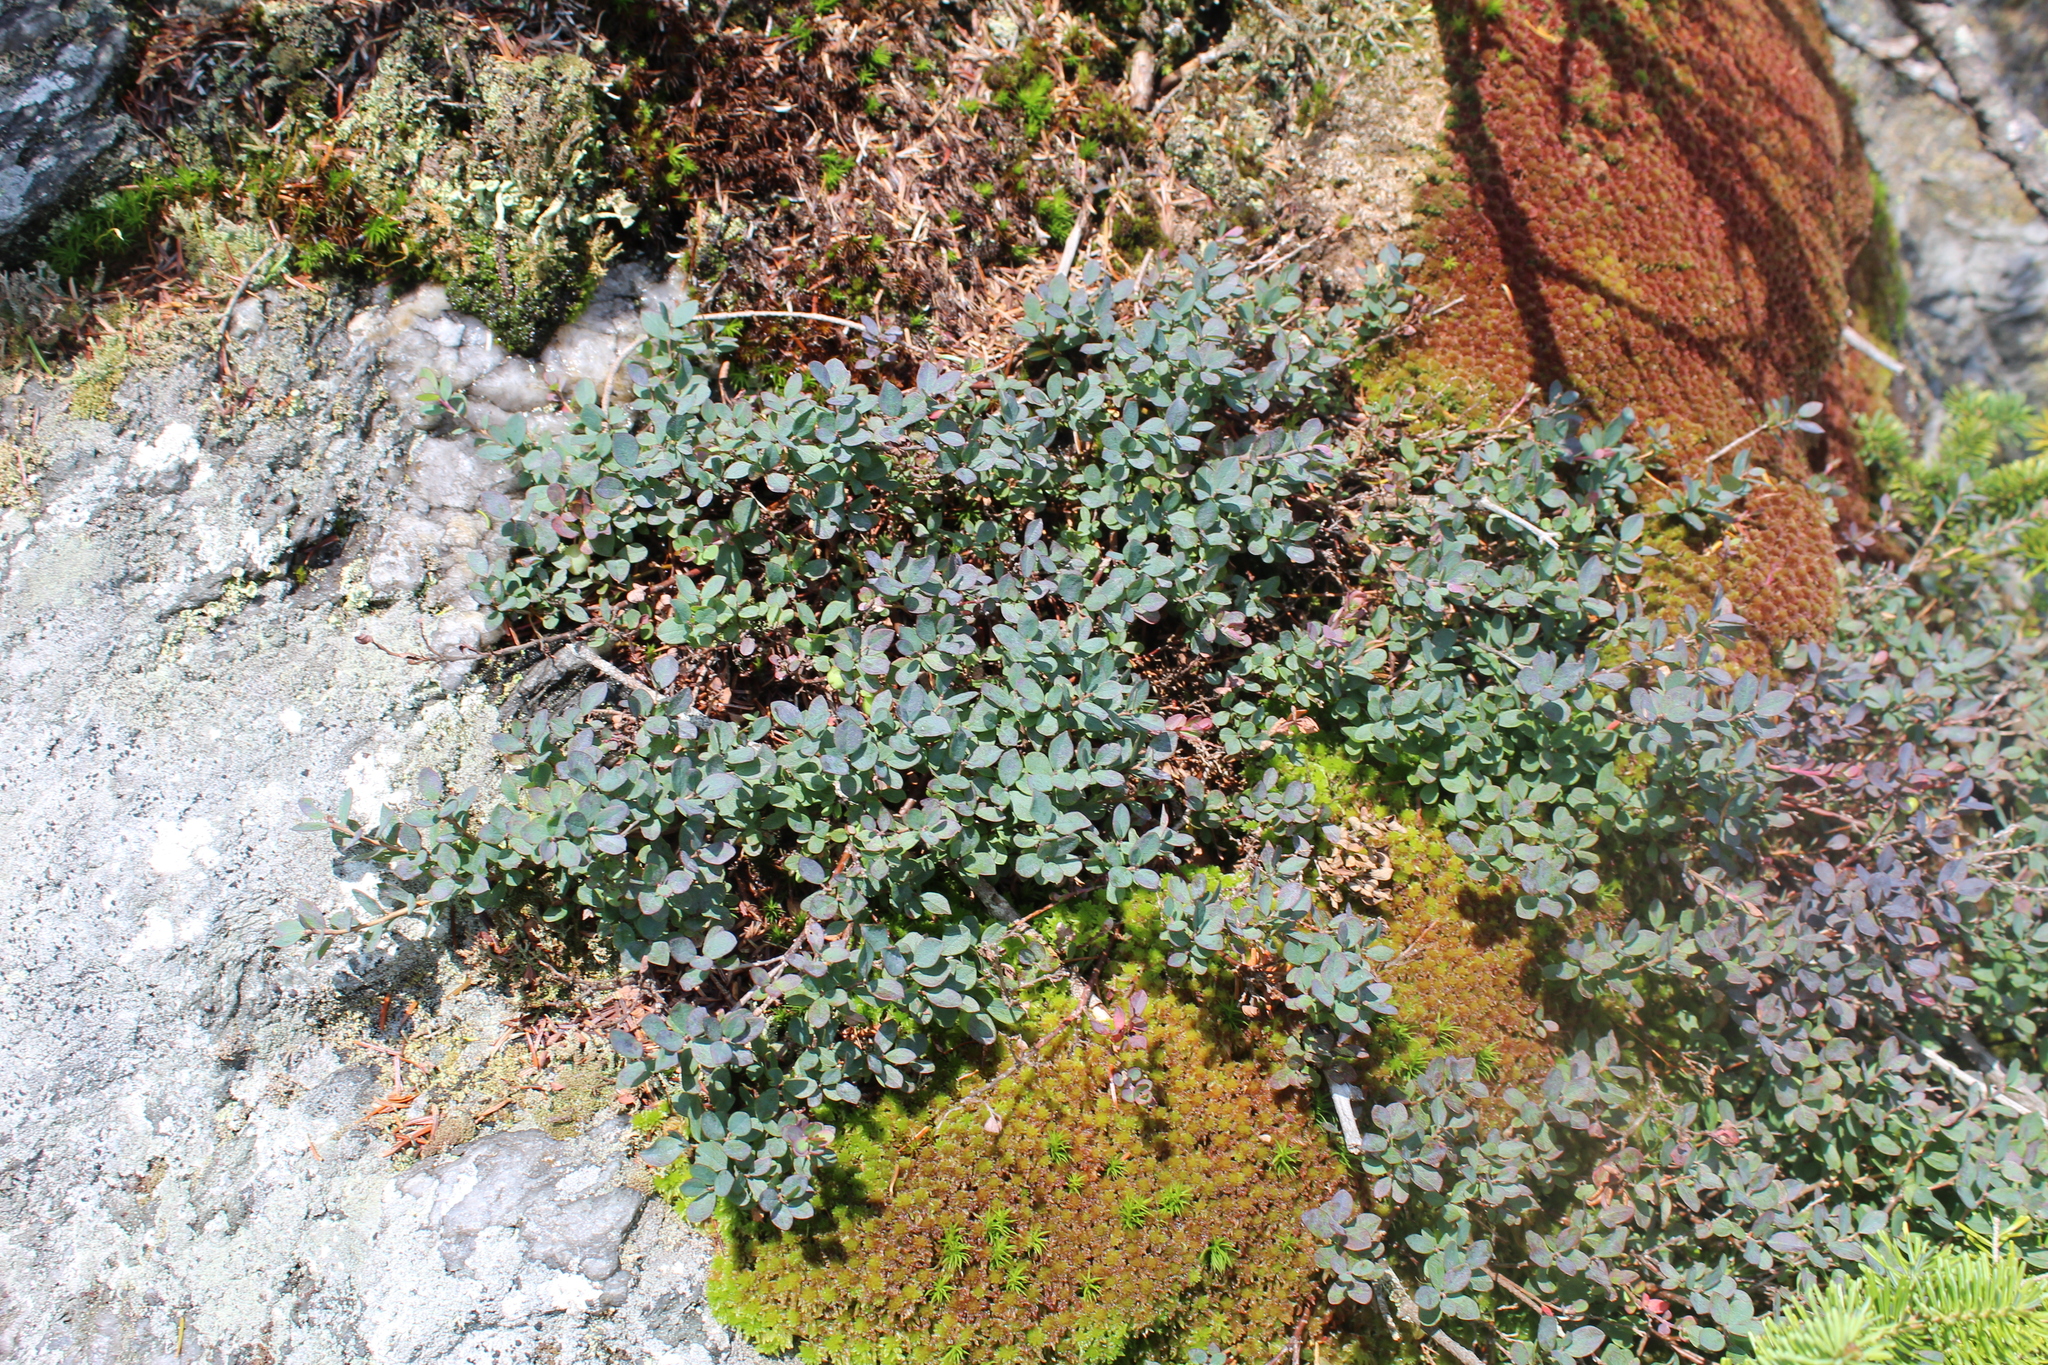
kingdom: Plantae
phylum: Tracheophyta
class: Magnoliopsida
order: Ericales
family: Ericaceae
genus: Vaccinium
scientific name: Vaccinium uliginosum
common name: Bog bilberry
